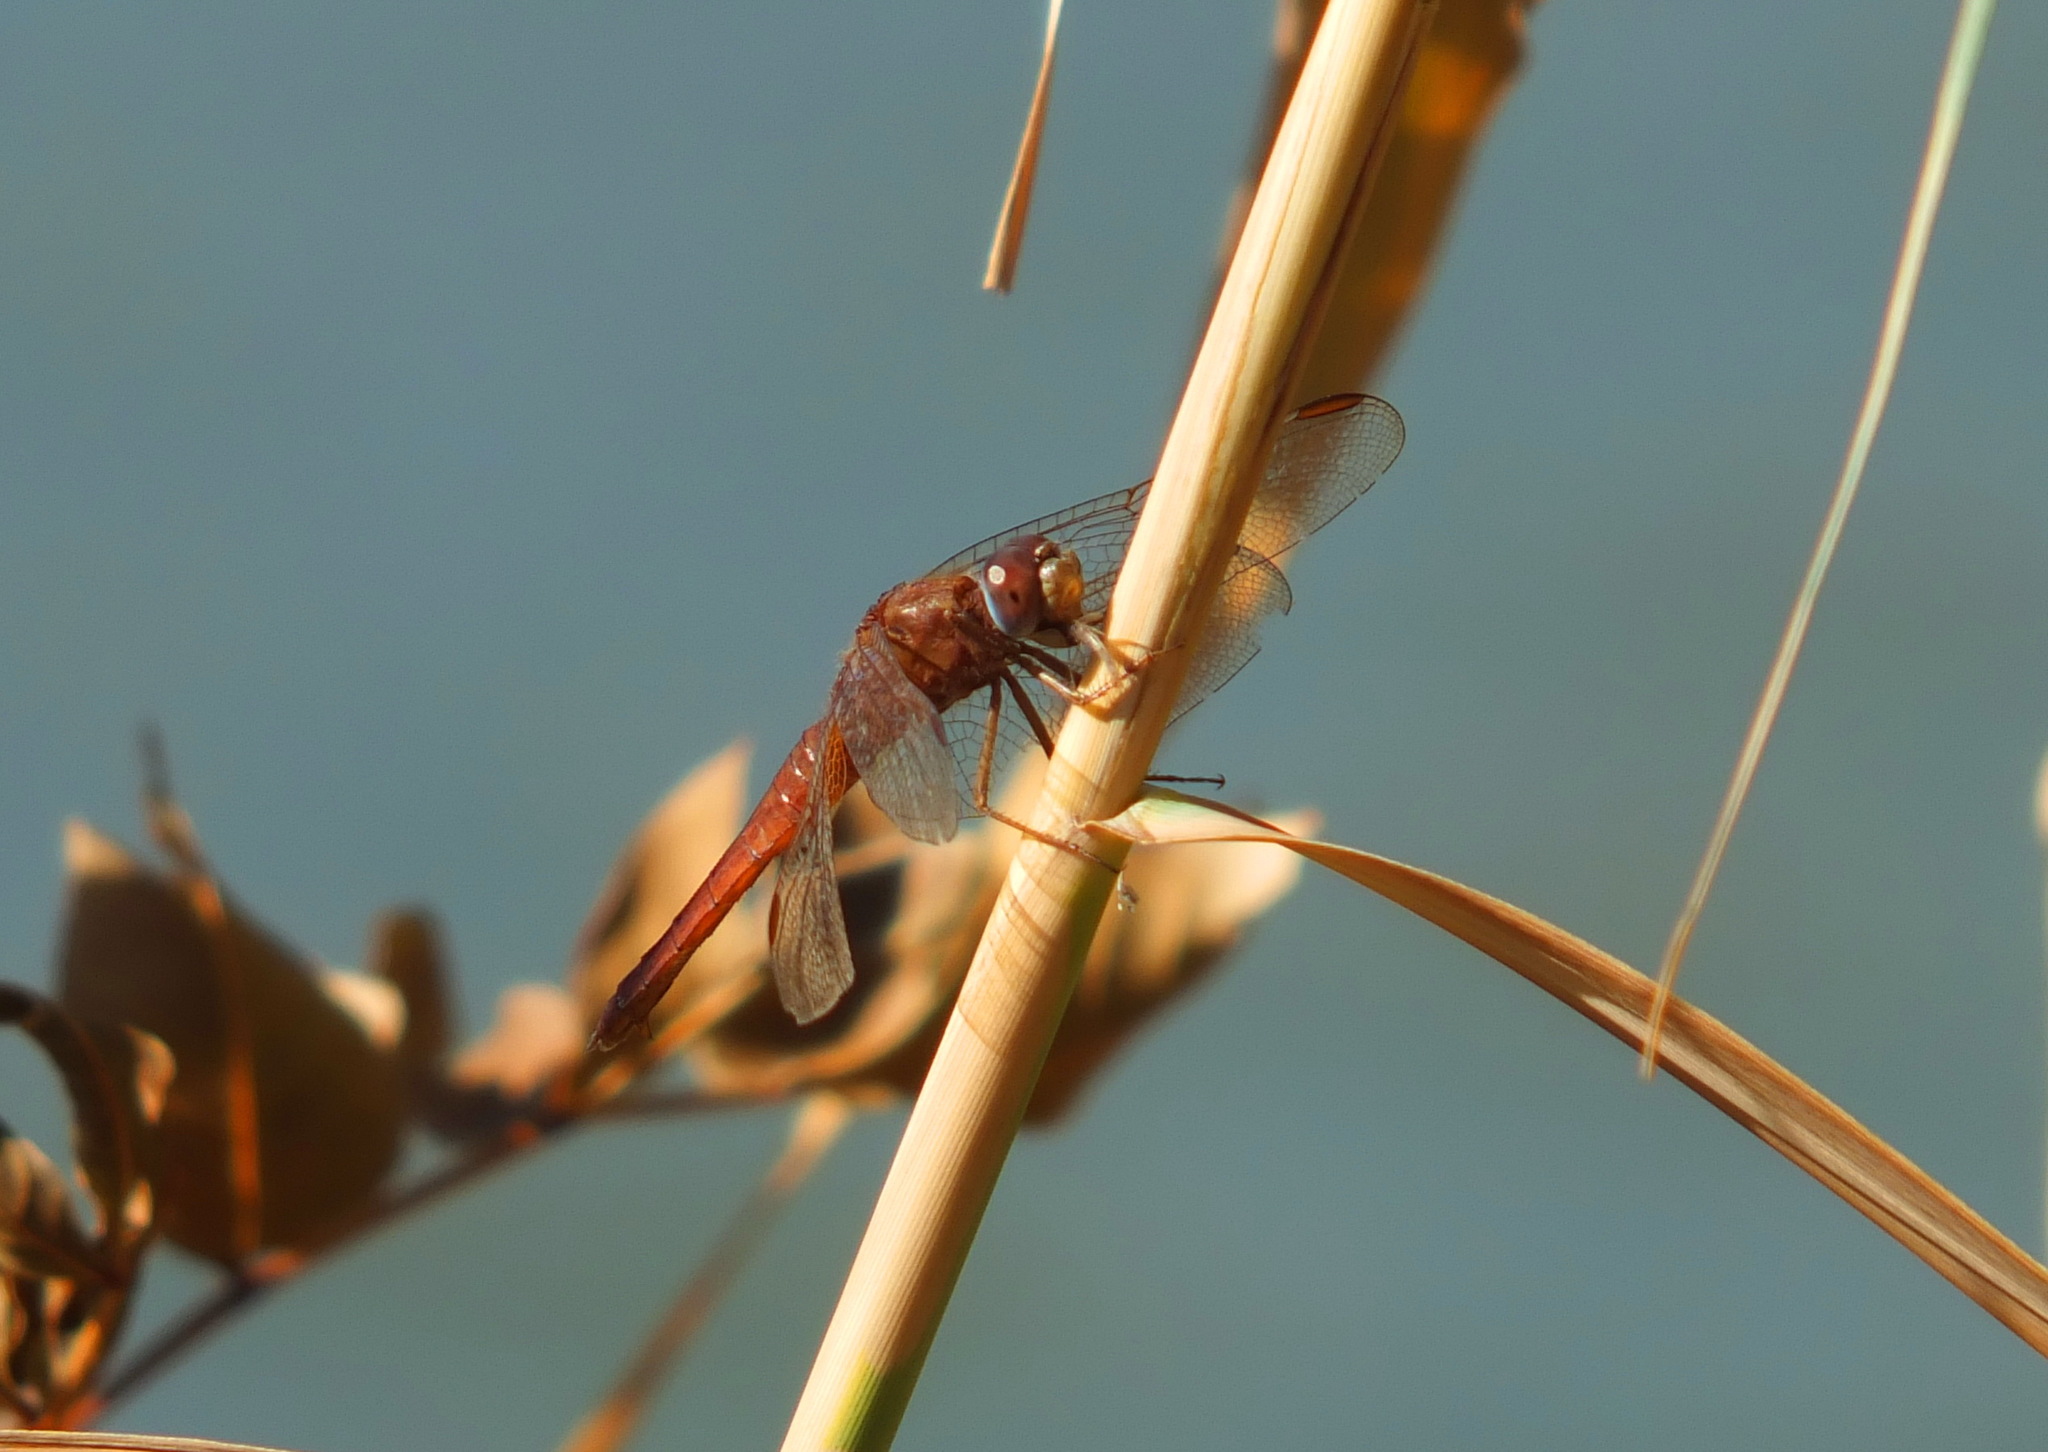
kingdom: Animalia
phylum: Arthropoda
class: Insecta
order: Odonata
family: Libellulidae
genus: Crocothemis
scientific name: Crocothemis erythraea
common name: Scarlet dragonfly
